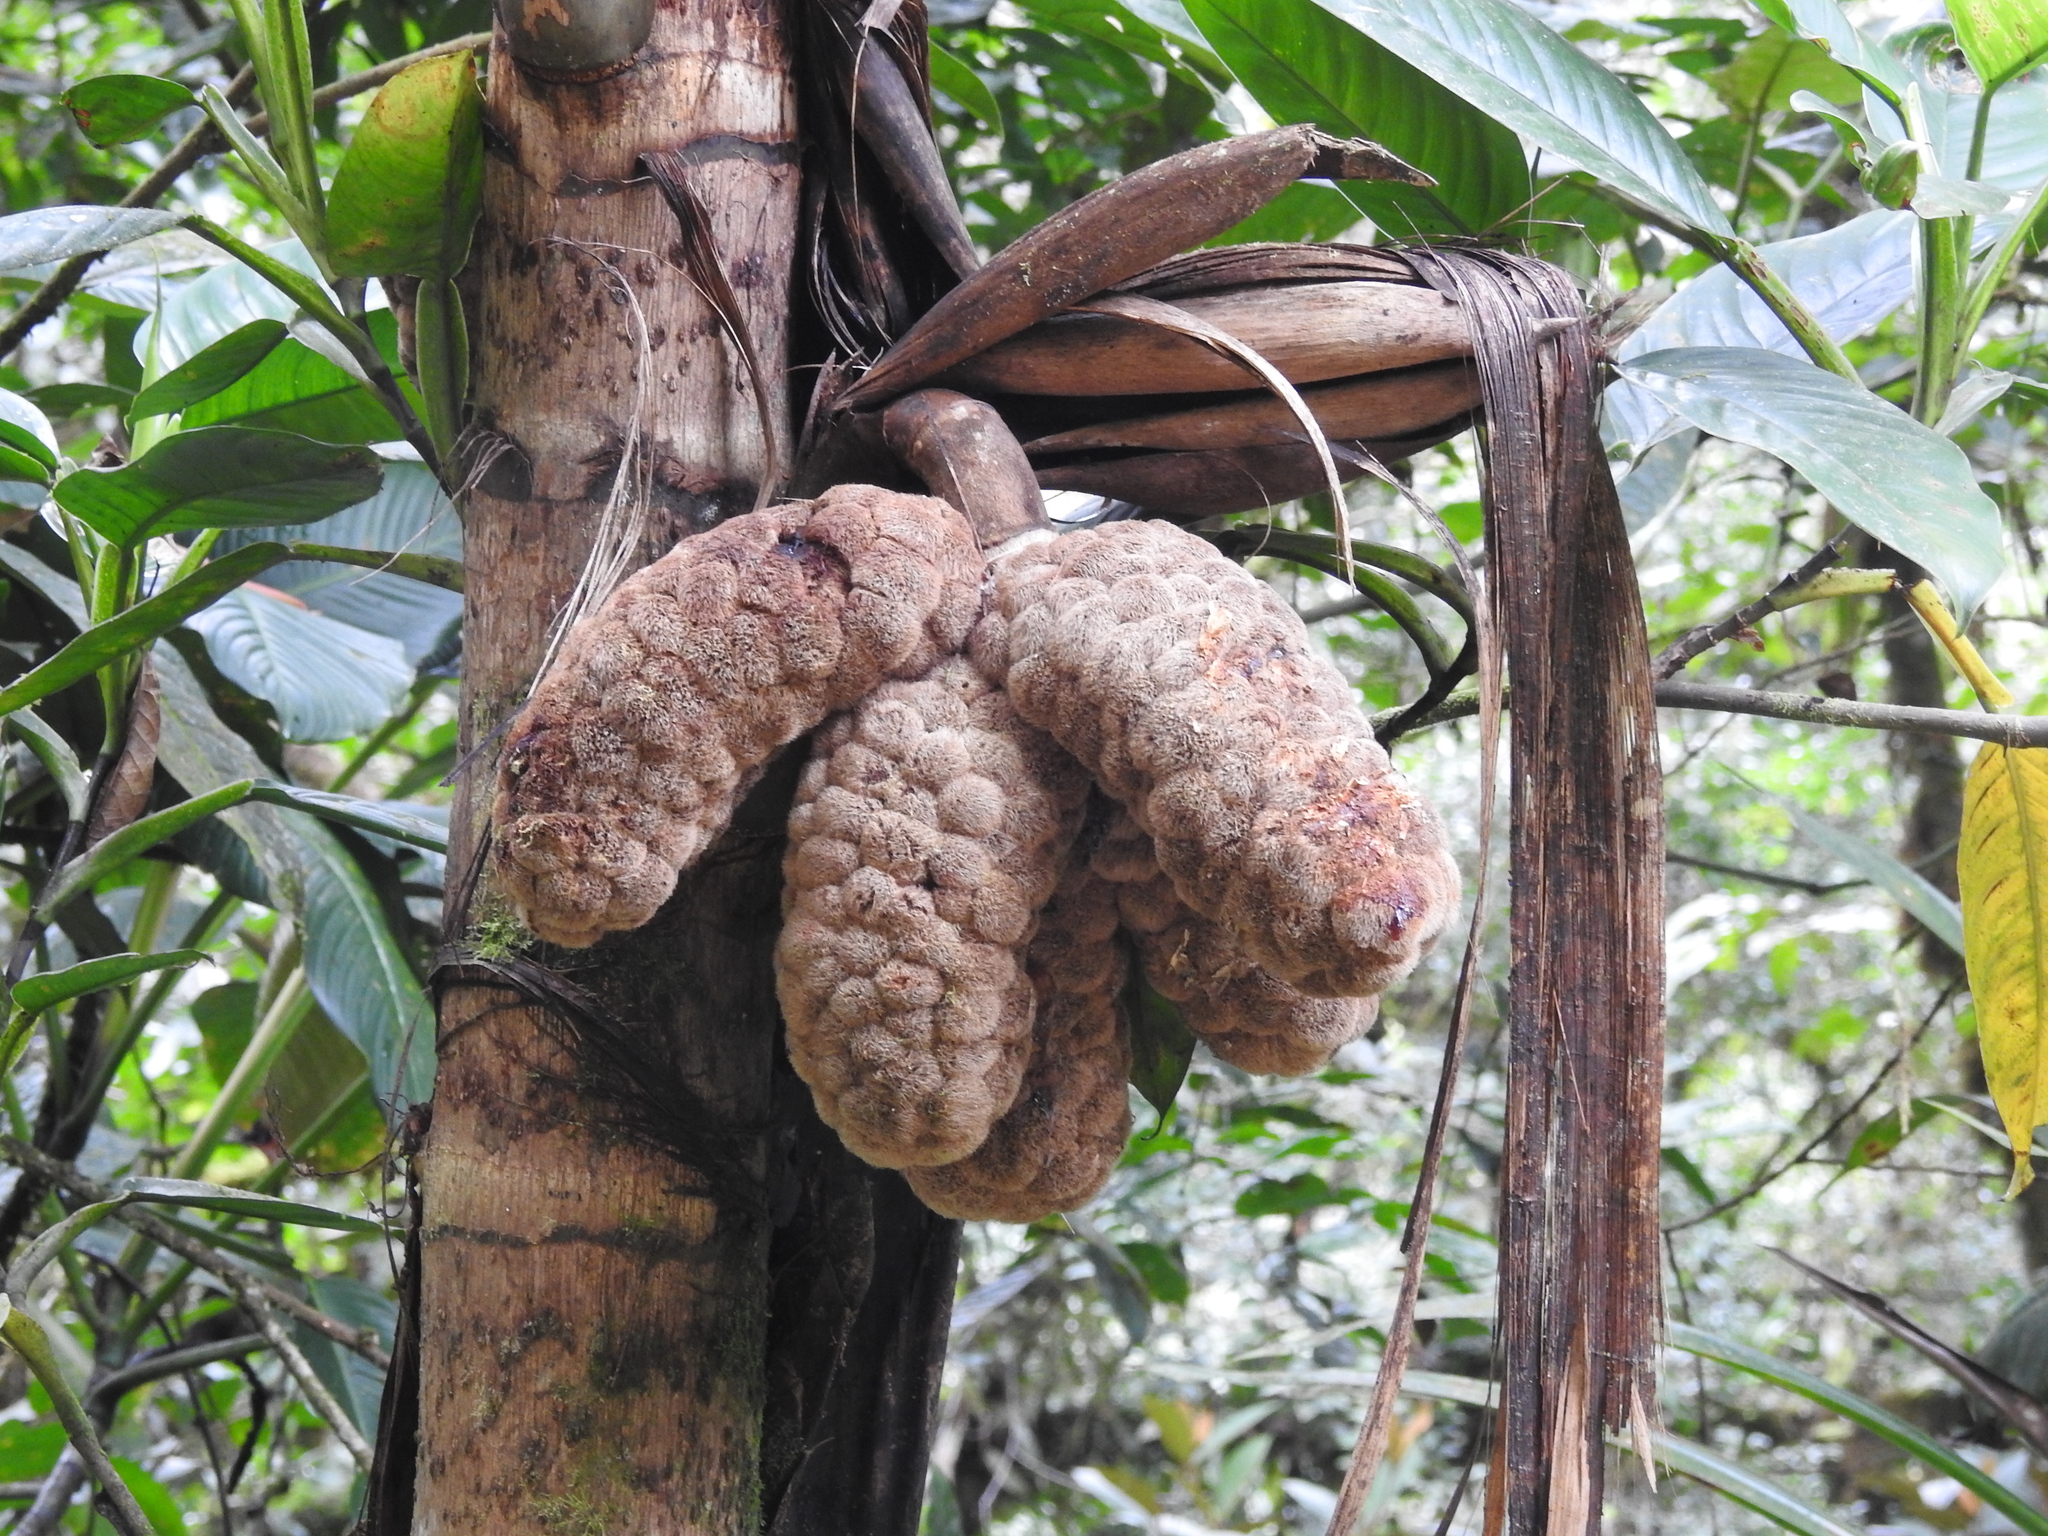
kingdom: Plantae
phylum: Tracheophyta
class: Liliopsida
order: Arecales
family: Arecaceae
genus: Wettinia
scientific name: Wettinia maynensis
